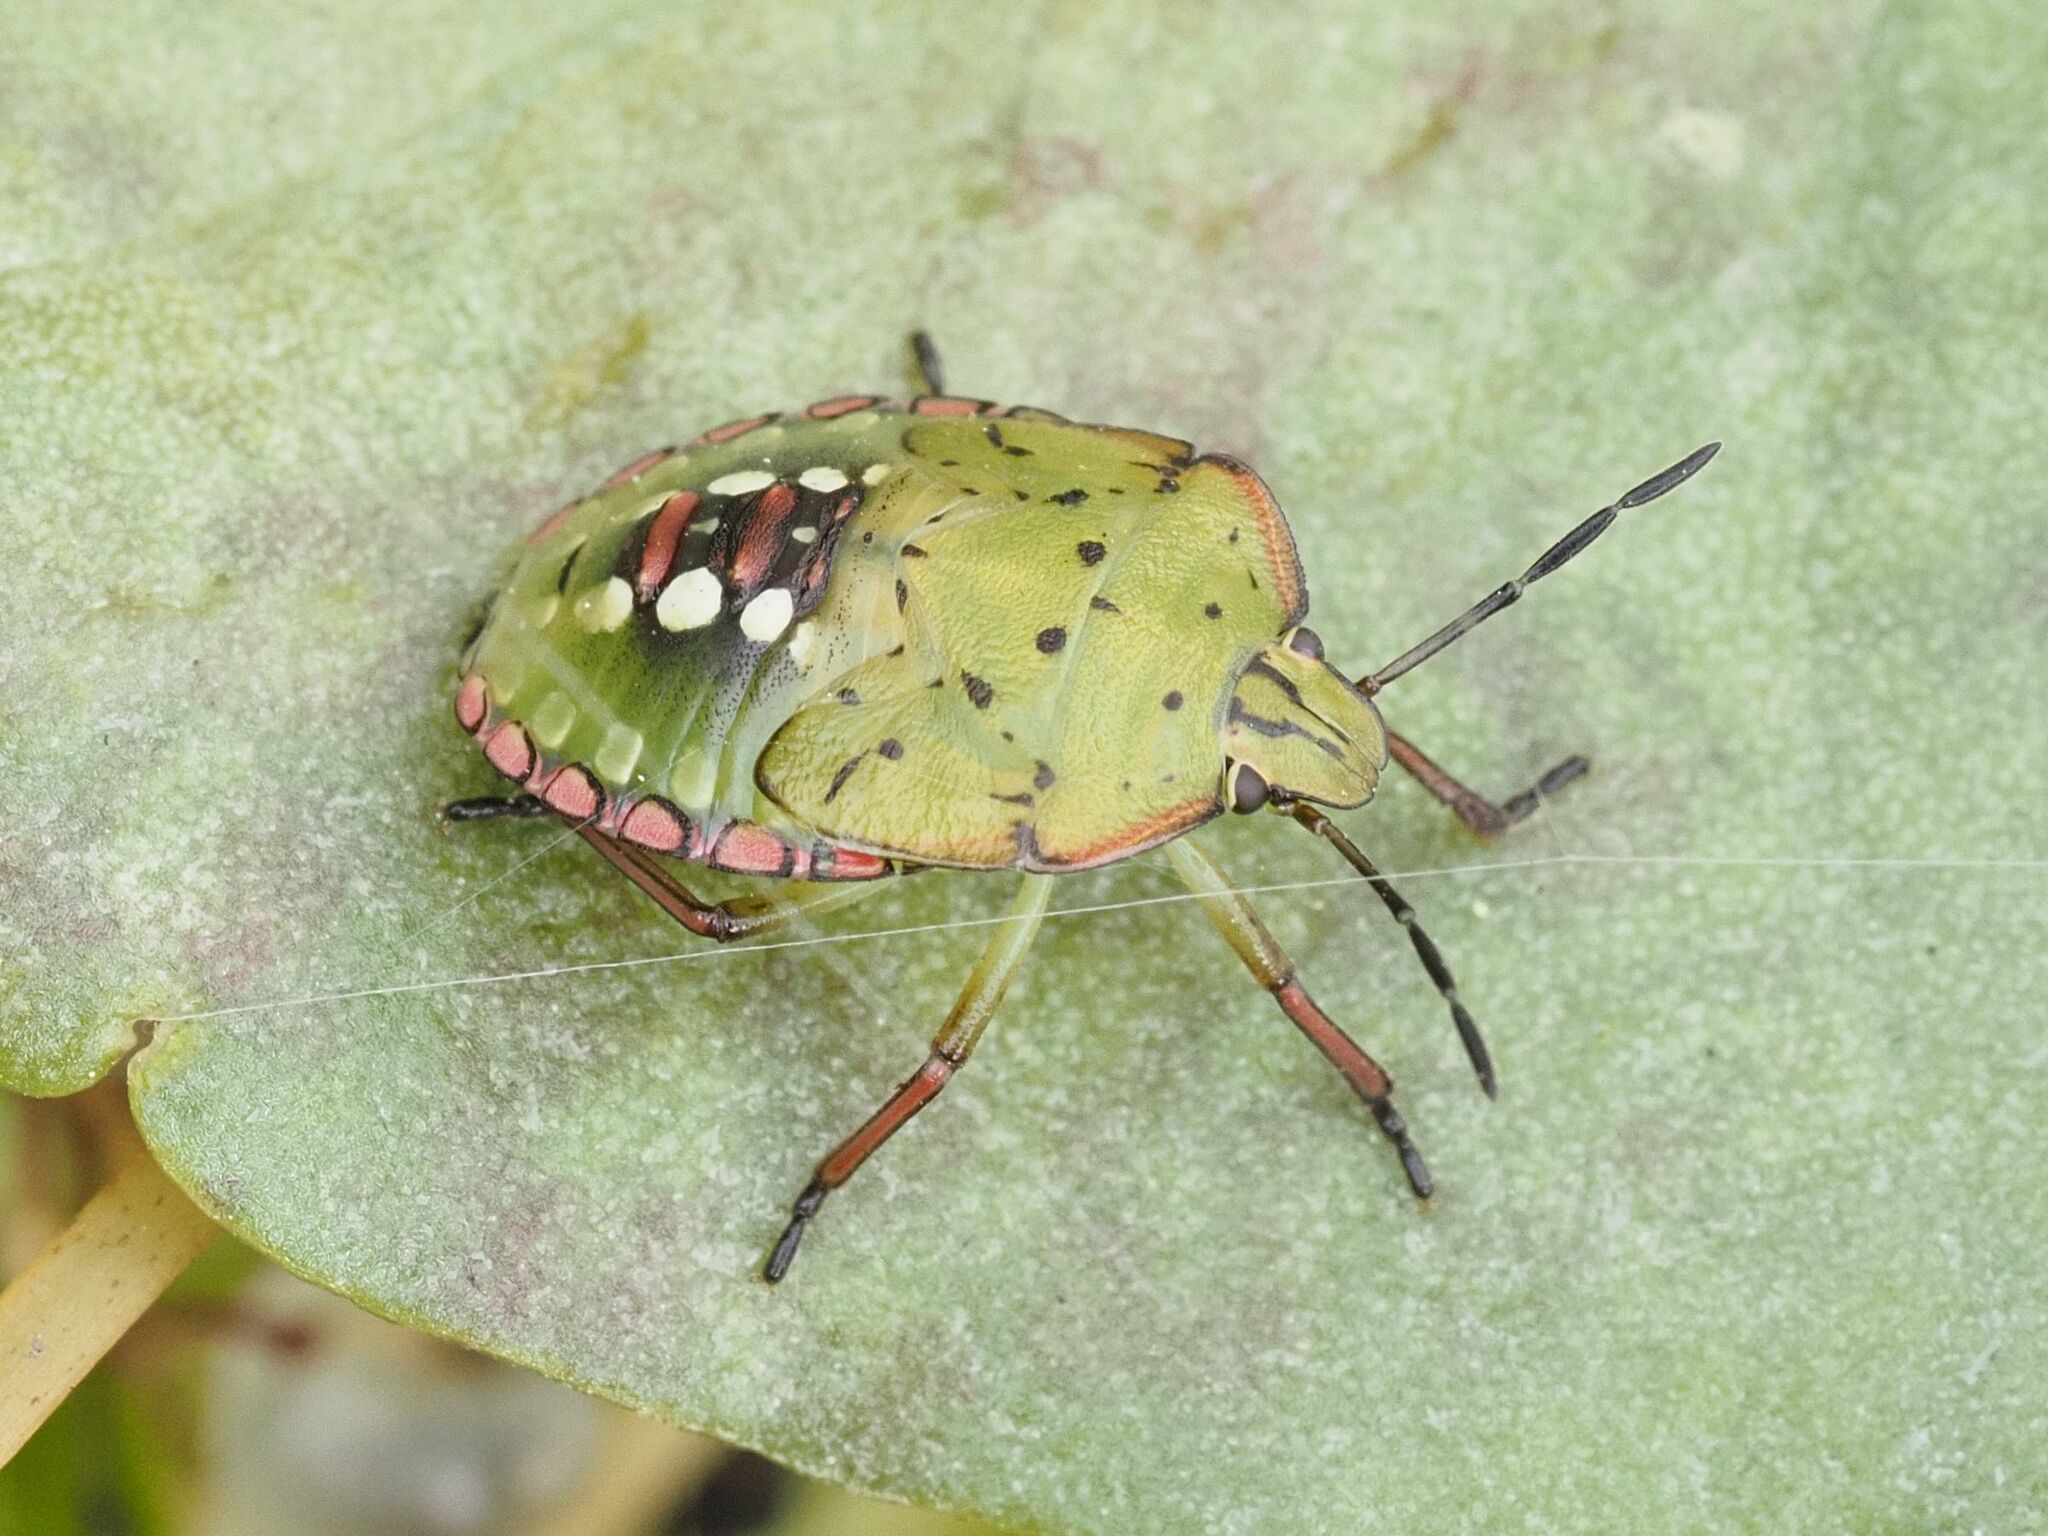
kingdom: Animalia
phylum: Arthropoda
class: Insecta
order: Hemiptera
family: Pentatomidae
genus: Nezara
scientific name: Nezara viridula
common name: Southern green stink bug
